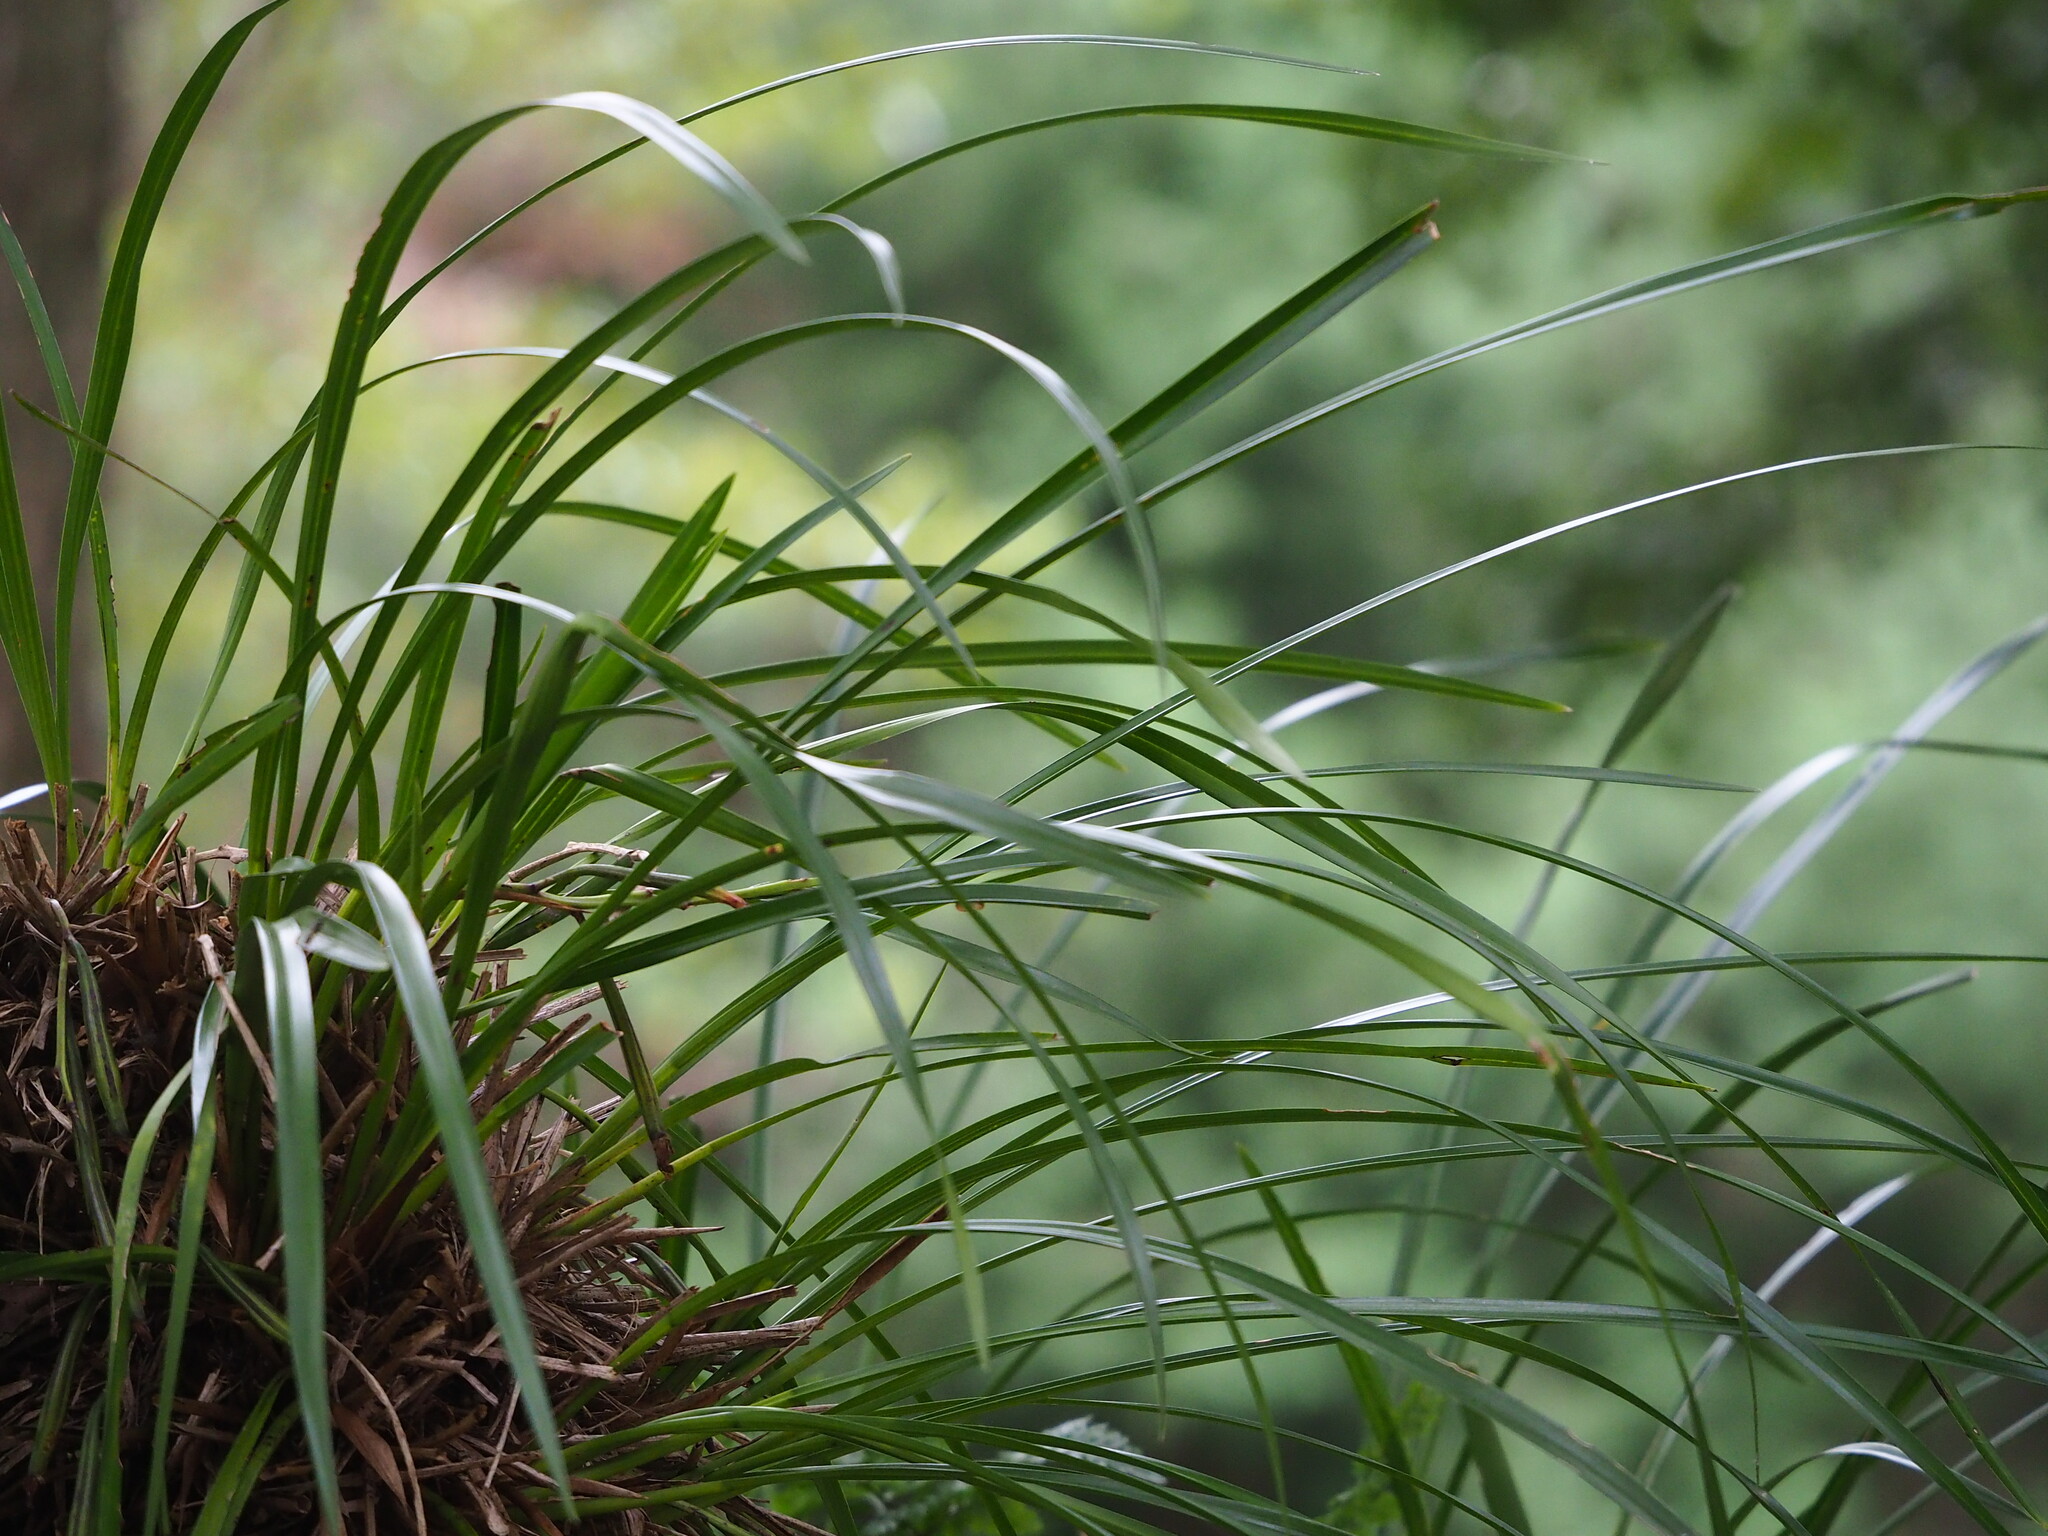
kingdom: Plantae
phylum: Tracheophyta
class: Liliopsida
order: Asparagales
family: Orchidaceae
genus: Cymbidium
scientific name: Cymbidium dayanum
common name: Orchid
